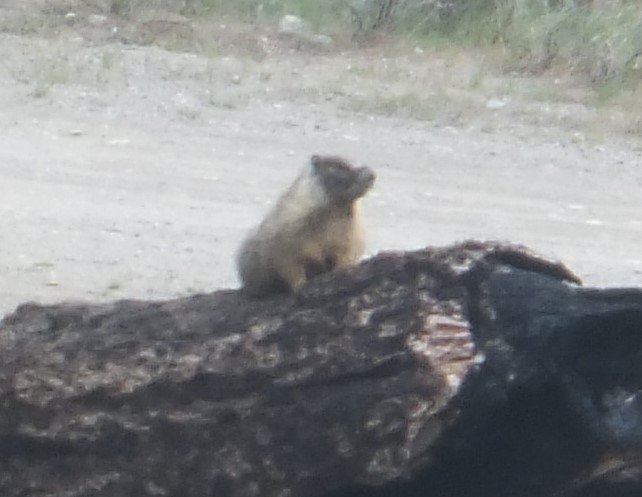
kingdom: Animalia
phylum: Chordata
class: Mammalia
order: Rodentia
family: Sciuridae
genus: Marmota
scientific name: Marmota flaviventris
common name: Yellow-bellied marmot
